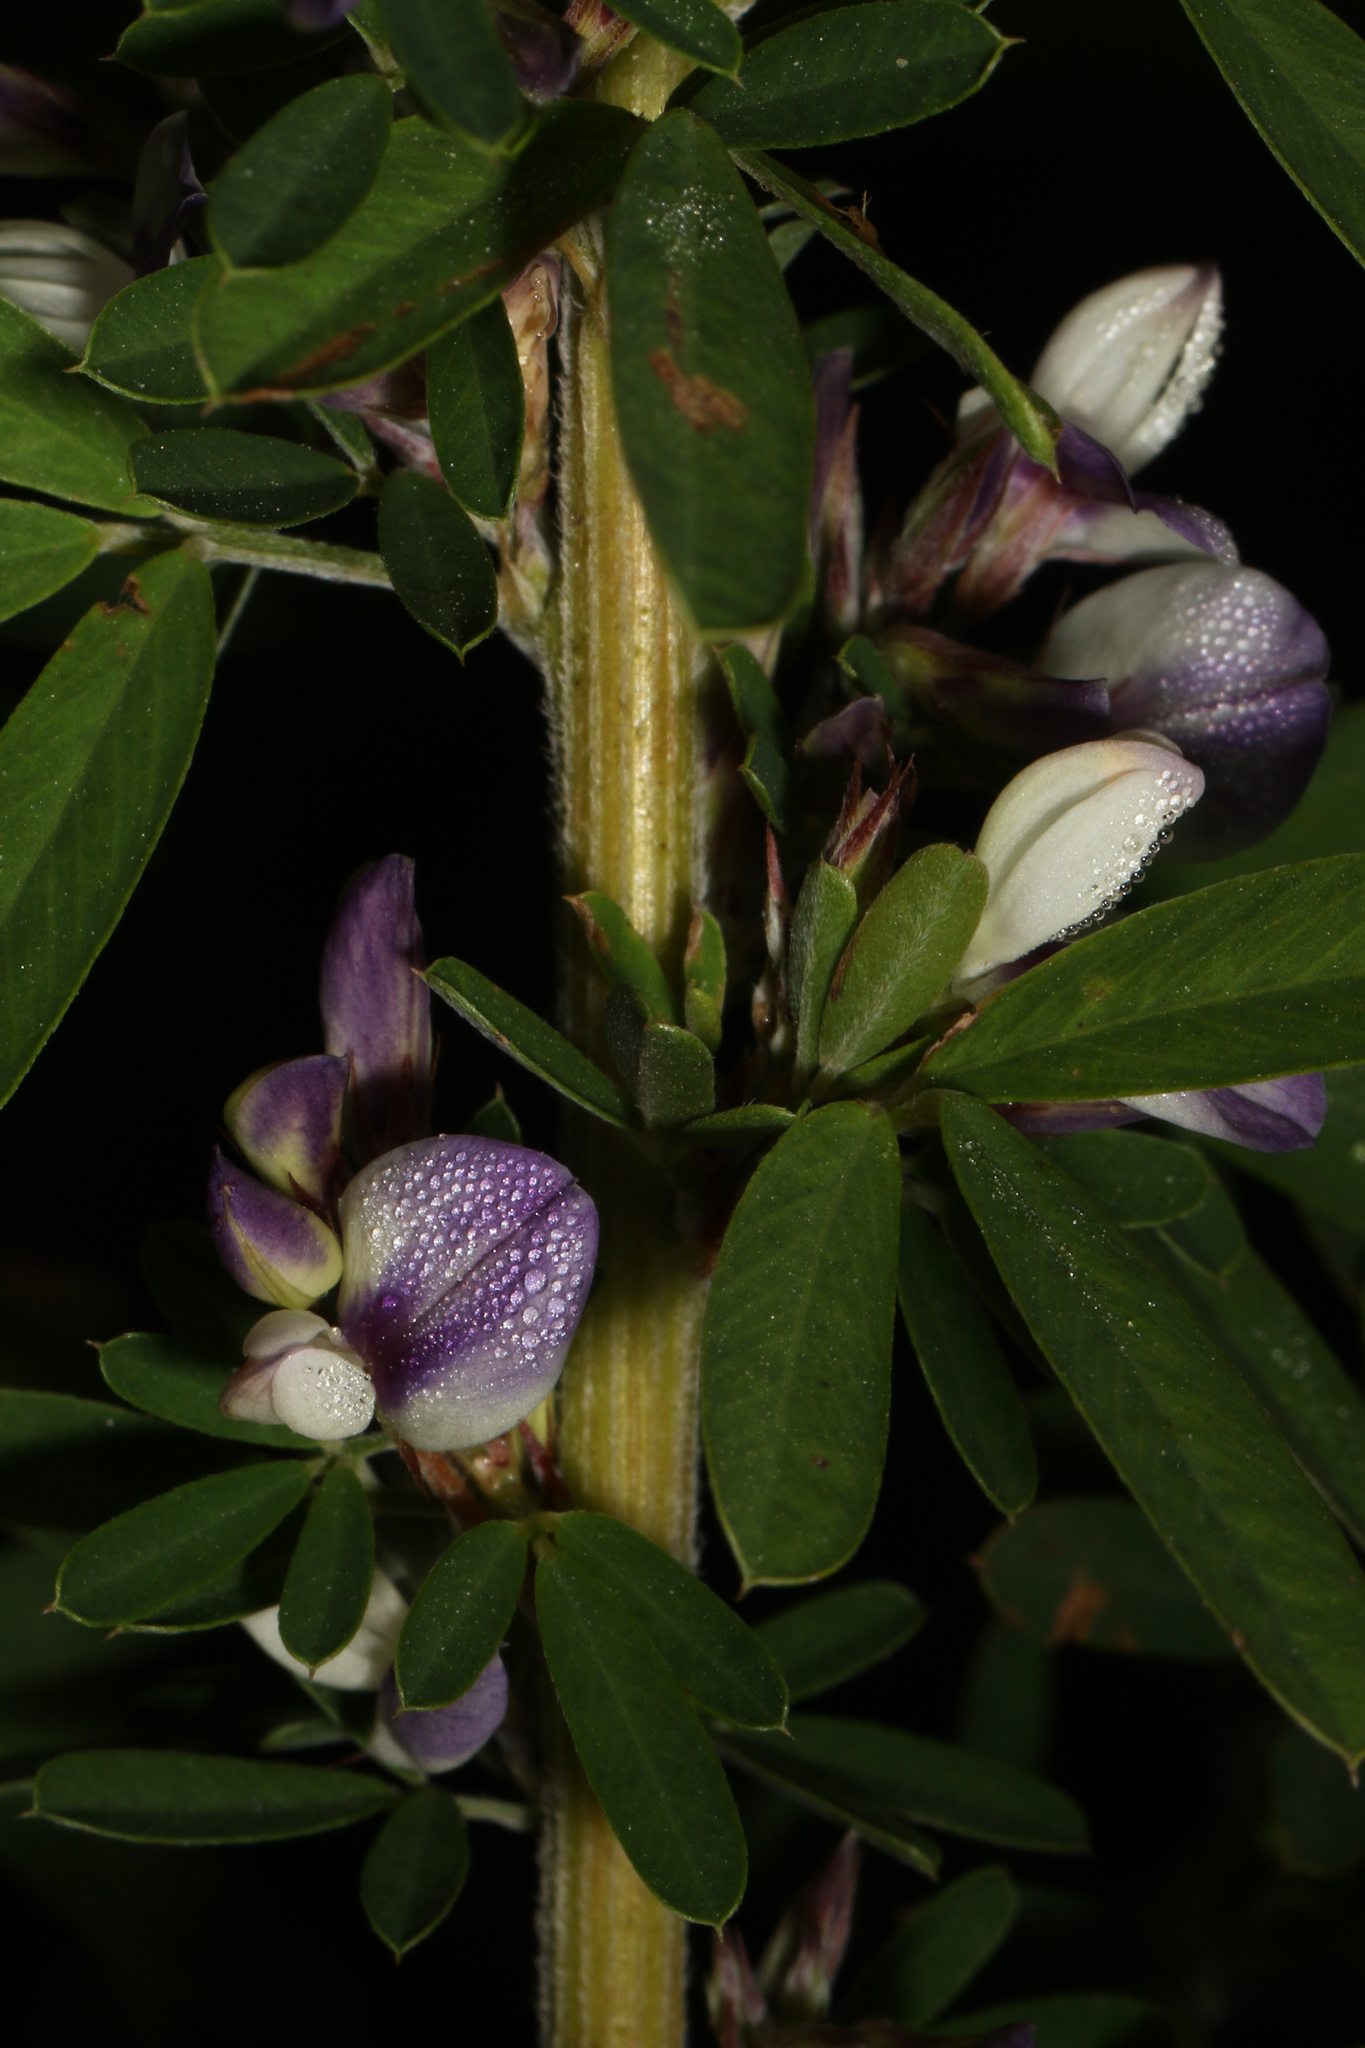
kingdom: Plantae
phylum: Tracheophyta
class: Magnoliopsida
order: Fabales
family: Fabaceae
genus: Lespedeza
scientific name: Lespedeza cuneata
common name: Chinese bush-clover
